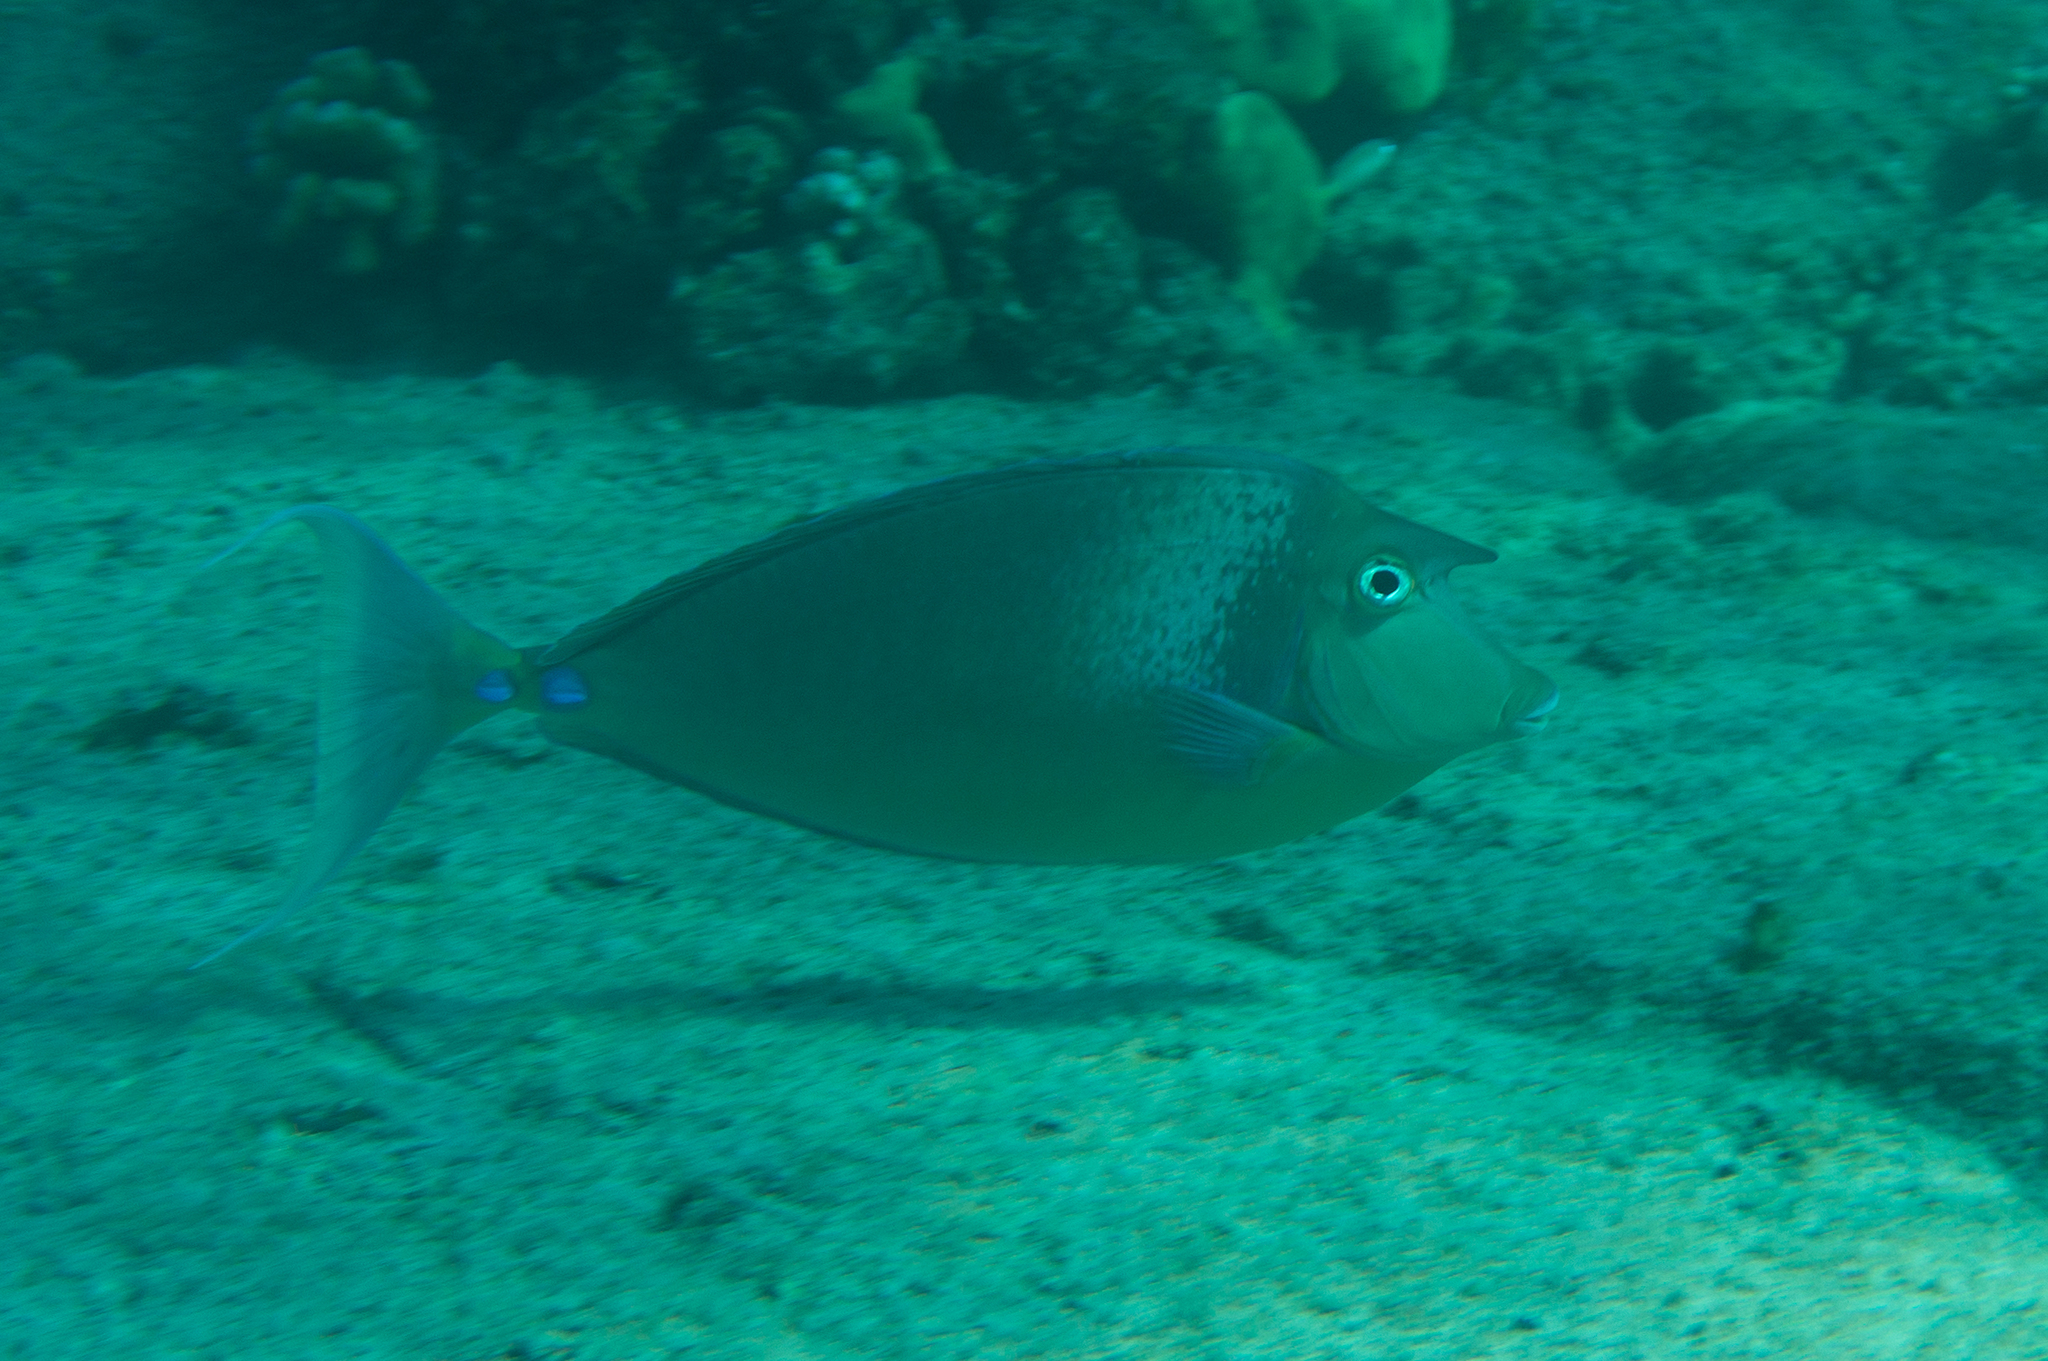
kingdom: Animalia
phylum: Chordata
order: Perciformes
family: Acanthuridae
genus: Naso
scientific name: Naso unicornis
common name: Bluespine unicornfish
